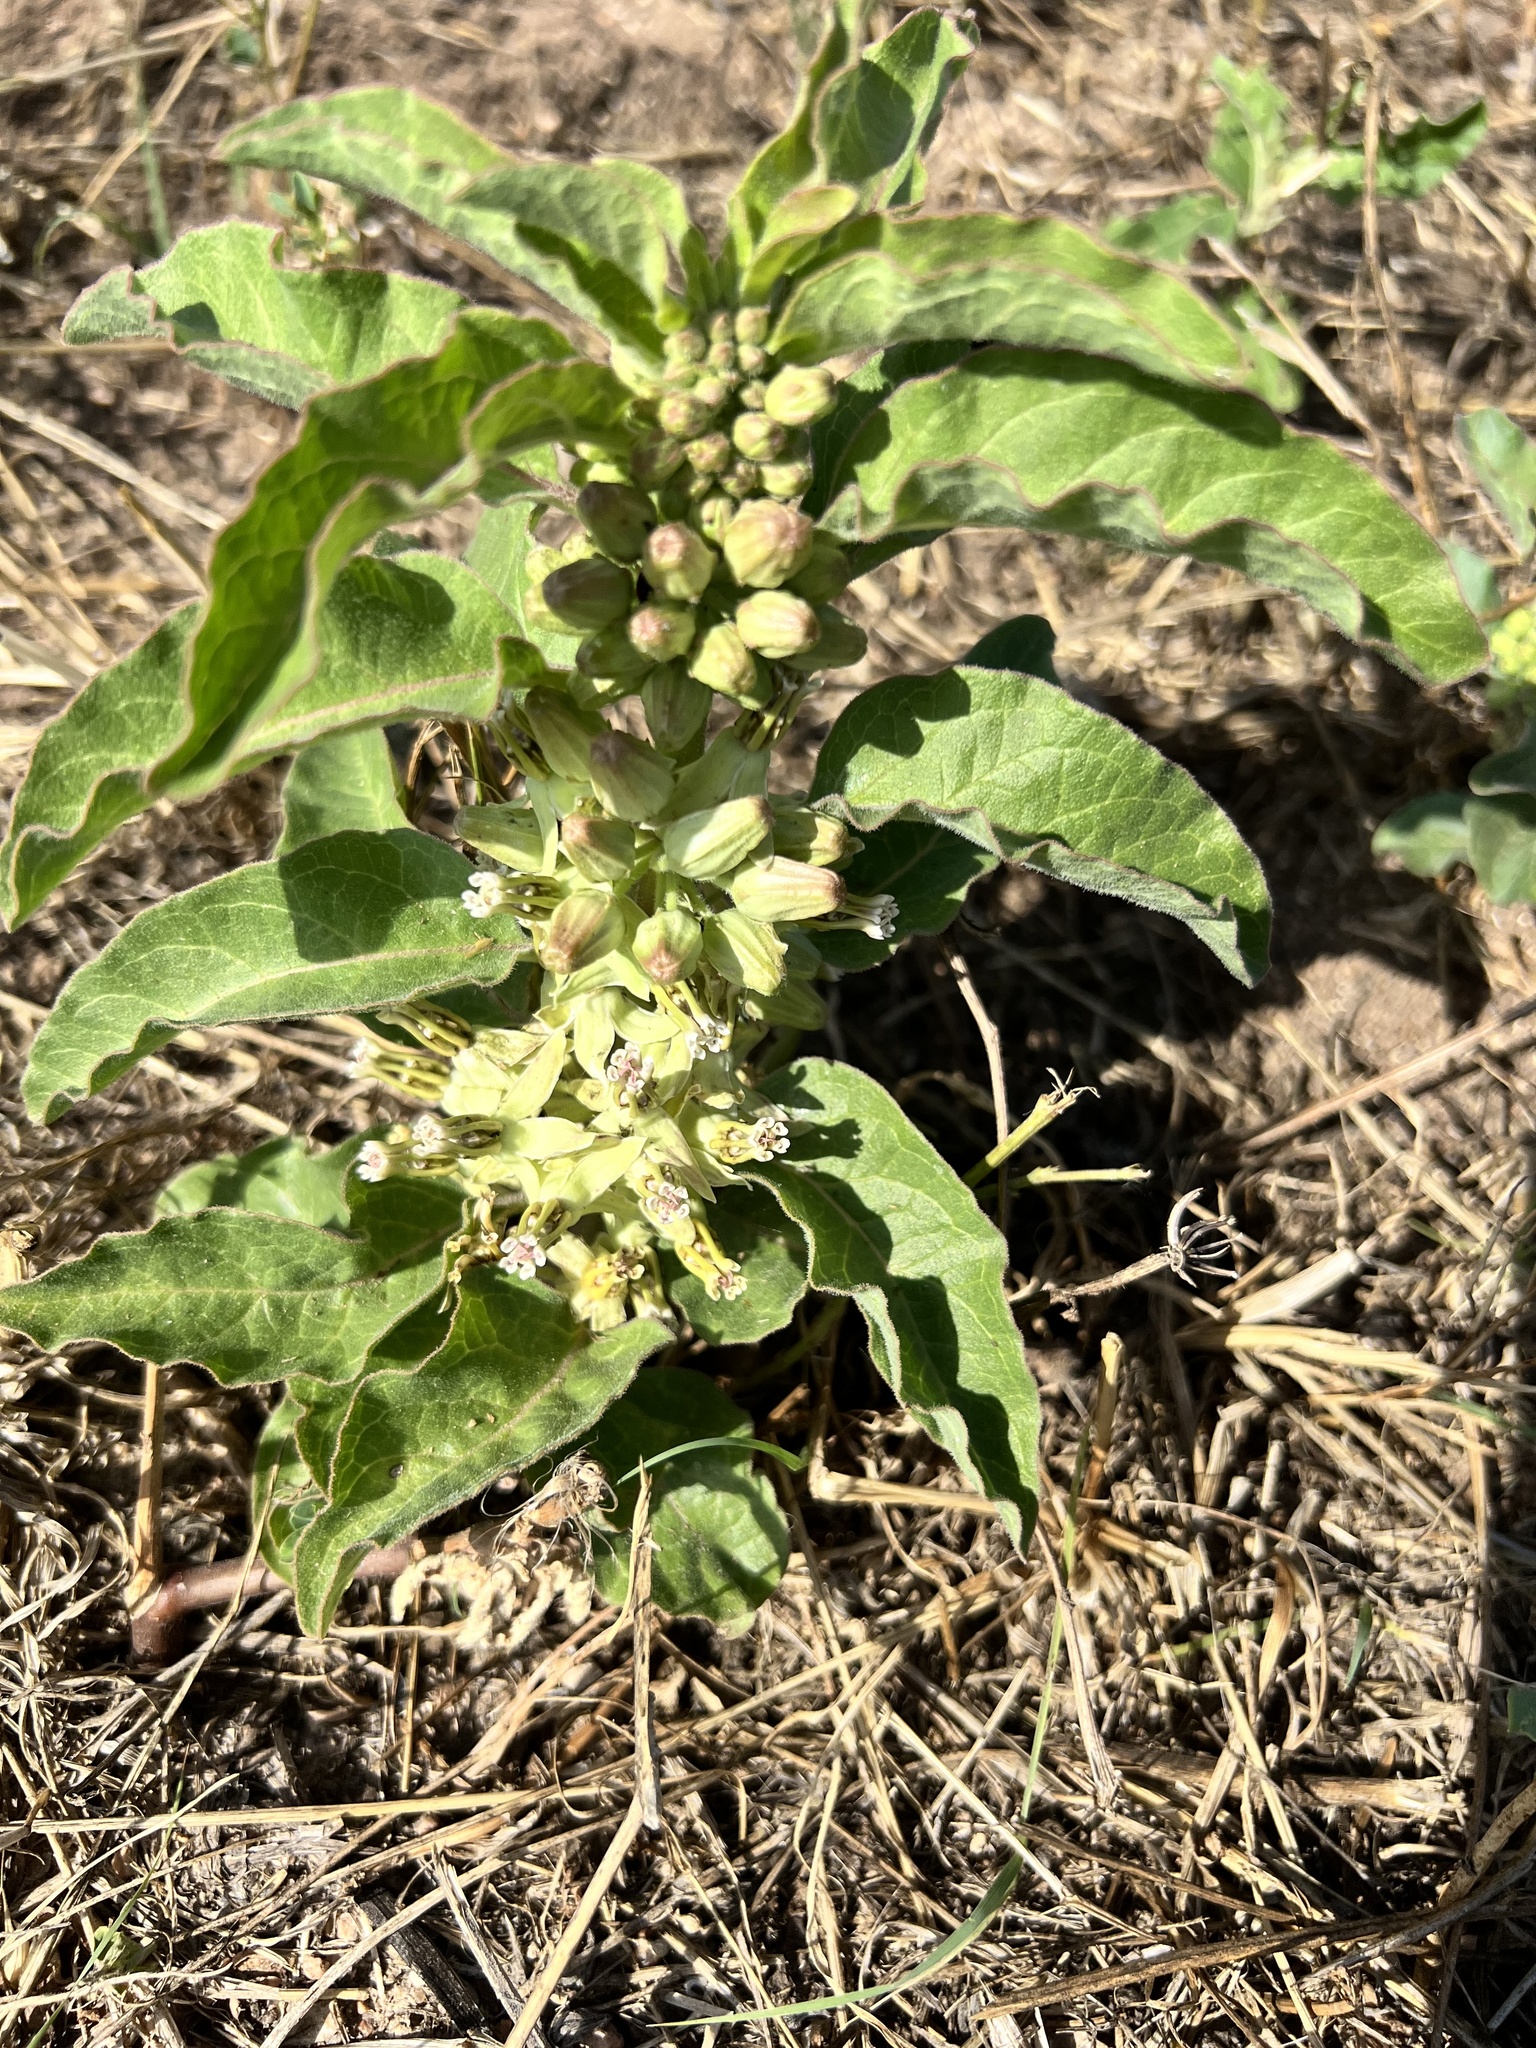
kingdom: Plantae
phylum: Tracheophyta
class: Magnoliopsida
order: Gentianales
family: Apocynaceae
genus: Asclepias
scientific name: Asclepias oenotheroides
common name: Zizotes milkweed
